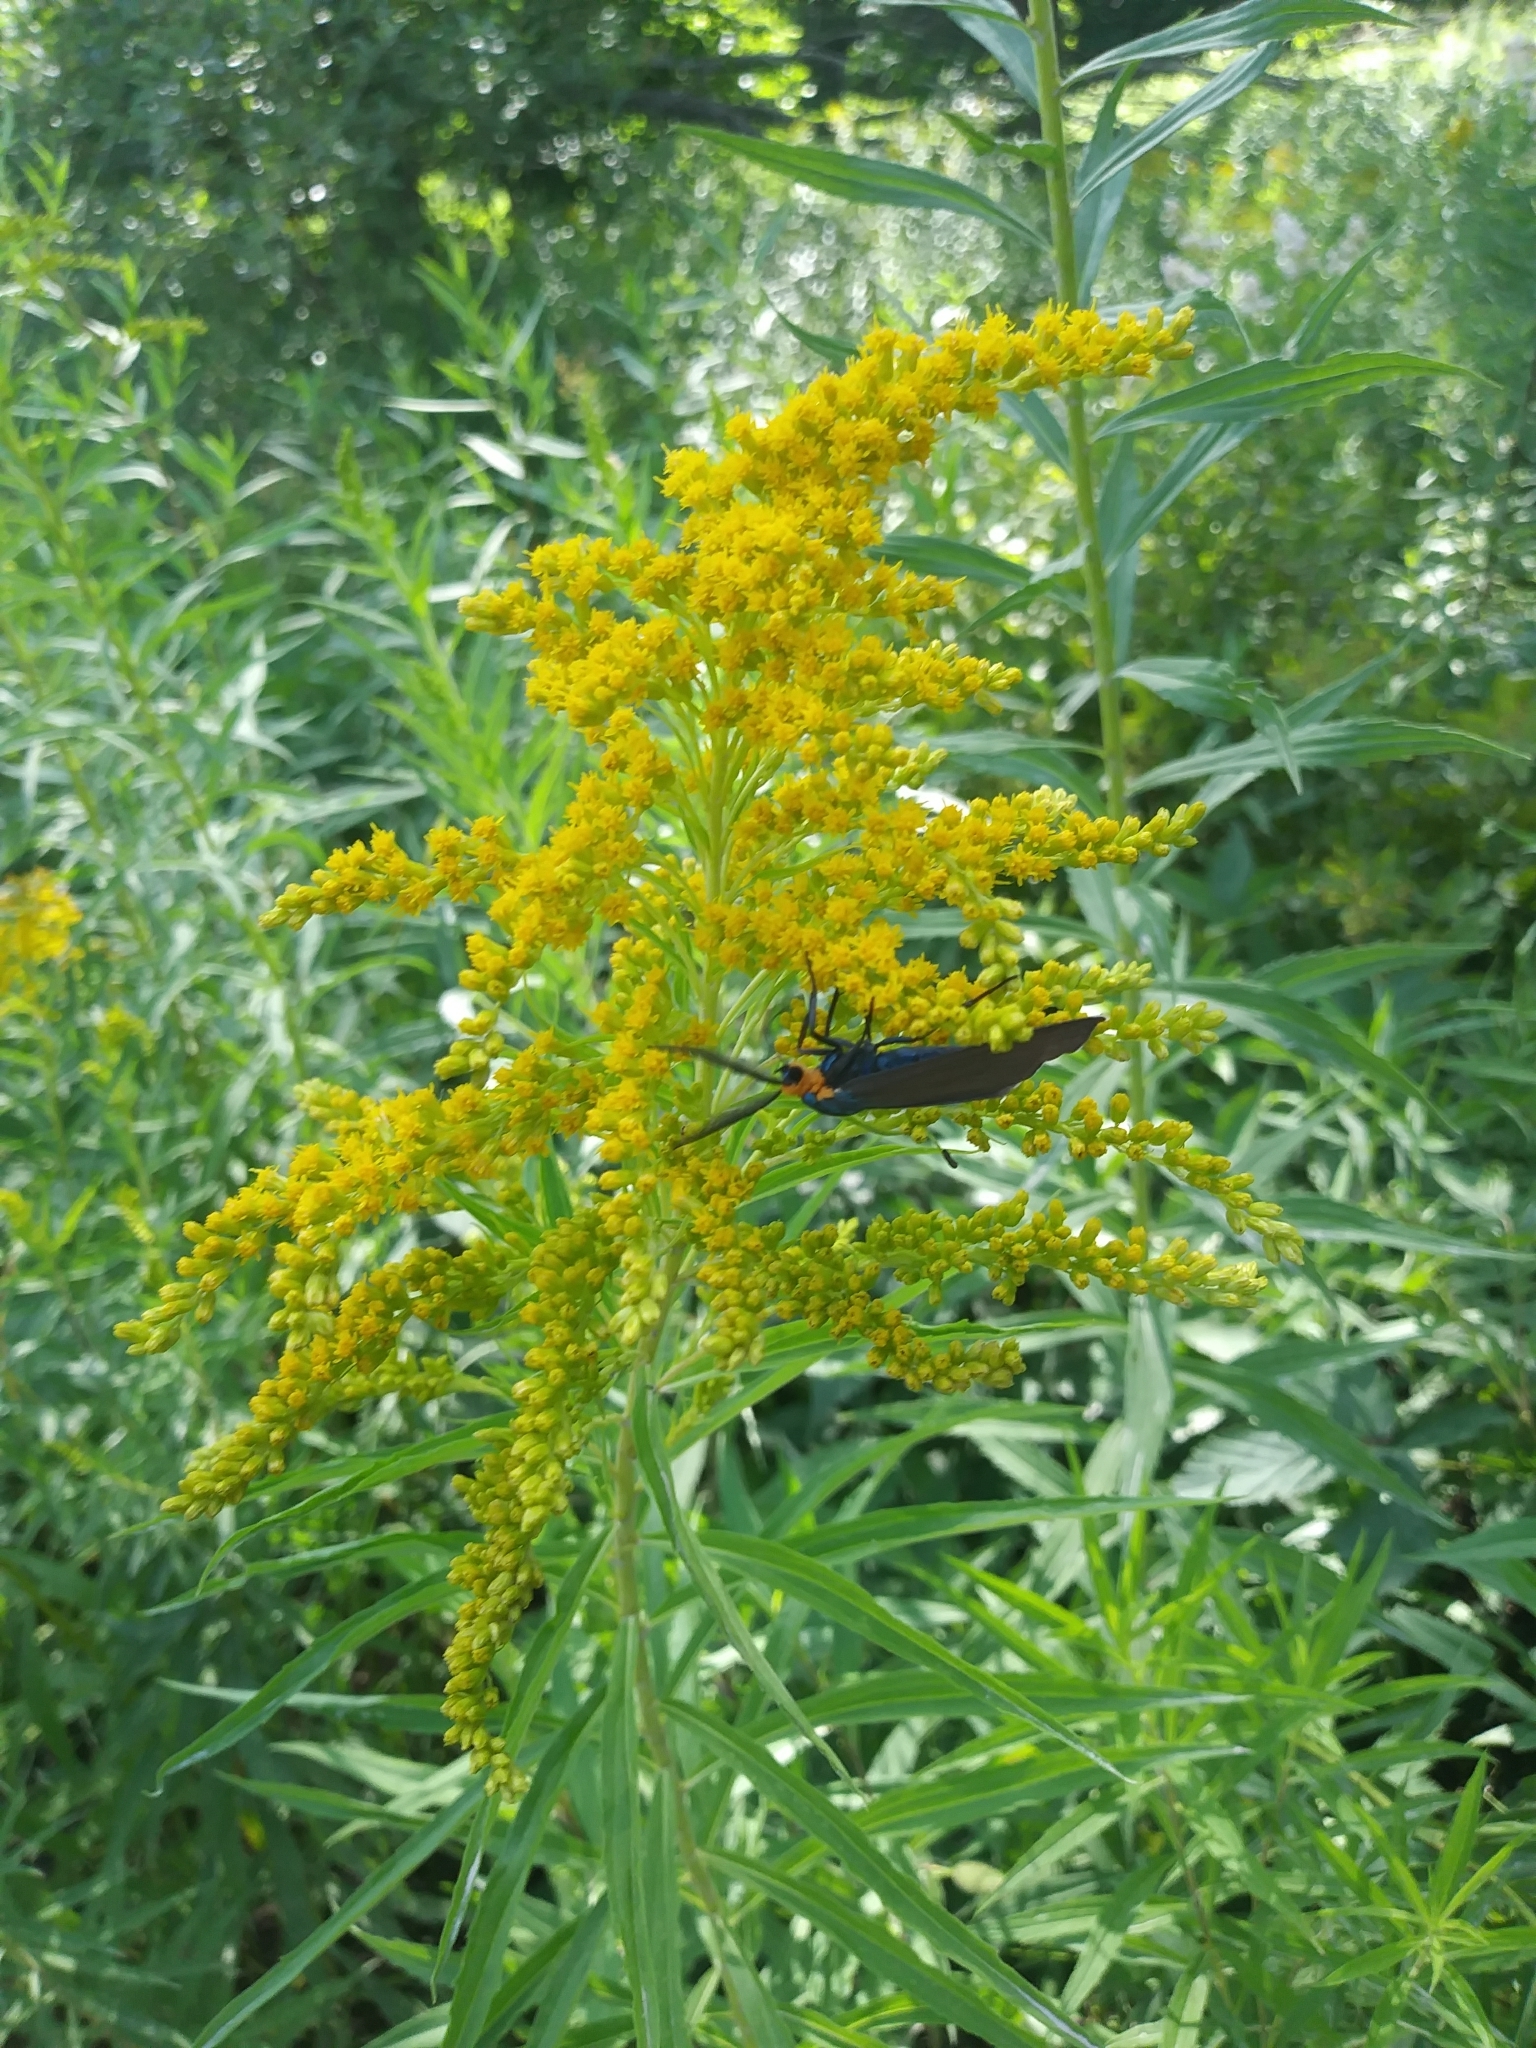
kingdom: Animalia
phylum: Arthropoda
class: Insecta
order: Lepidoptera
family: Erebidae
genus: Ctenucha
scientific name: Ctenucha virginica
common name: Virginia ctenucha moth
